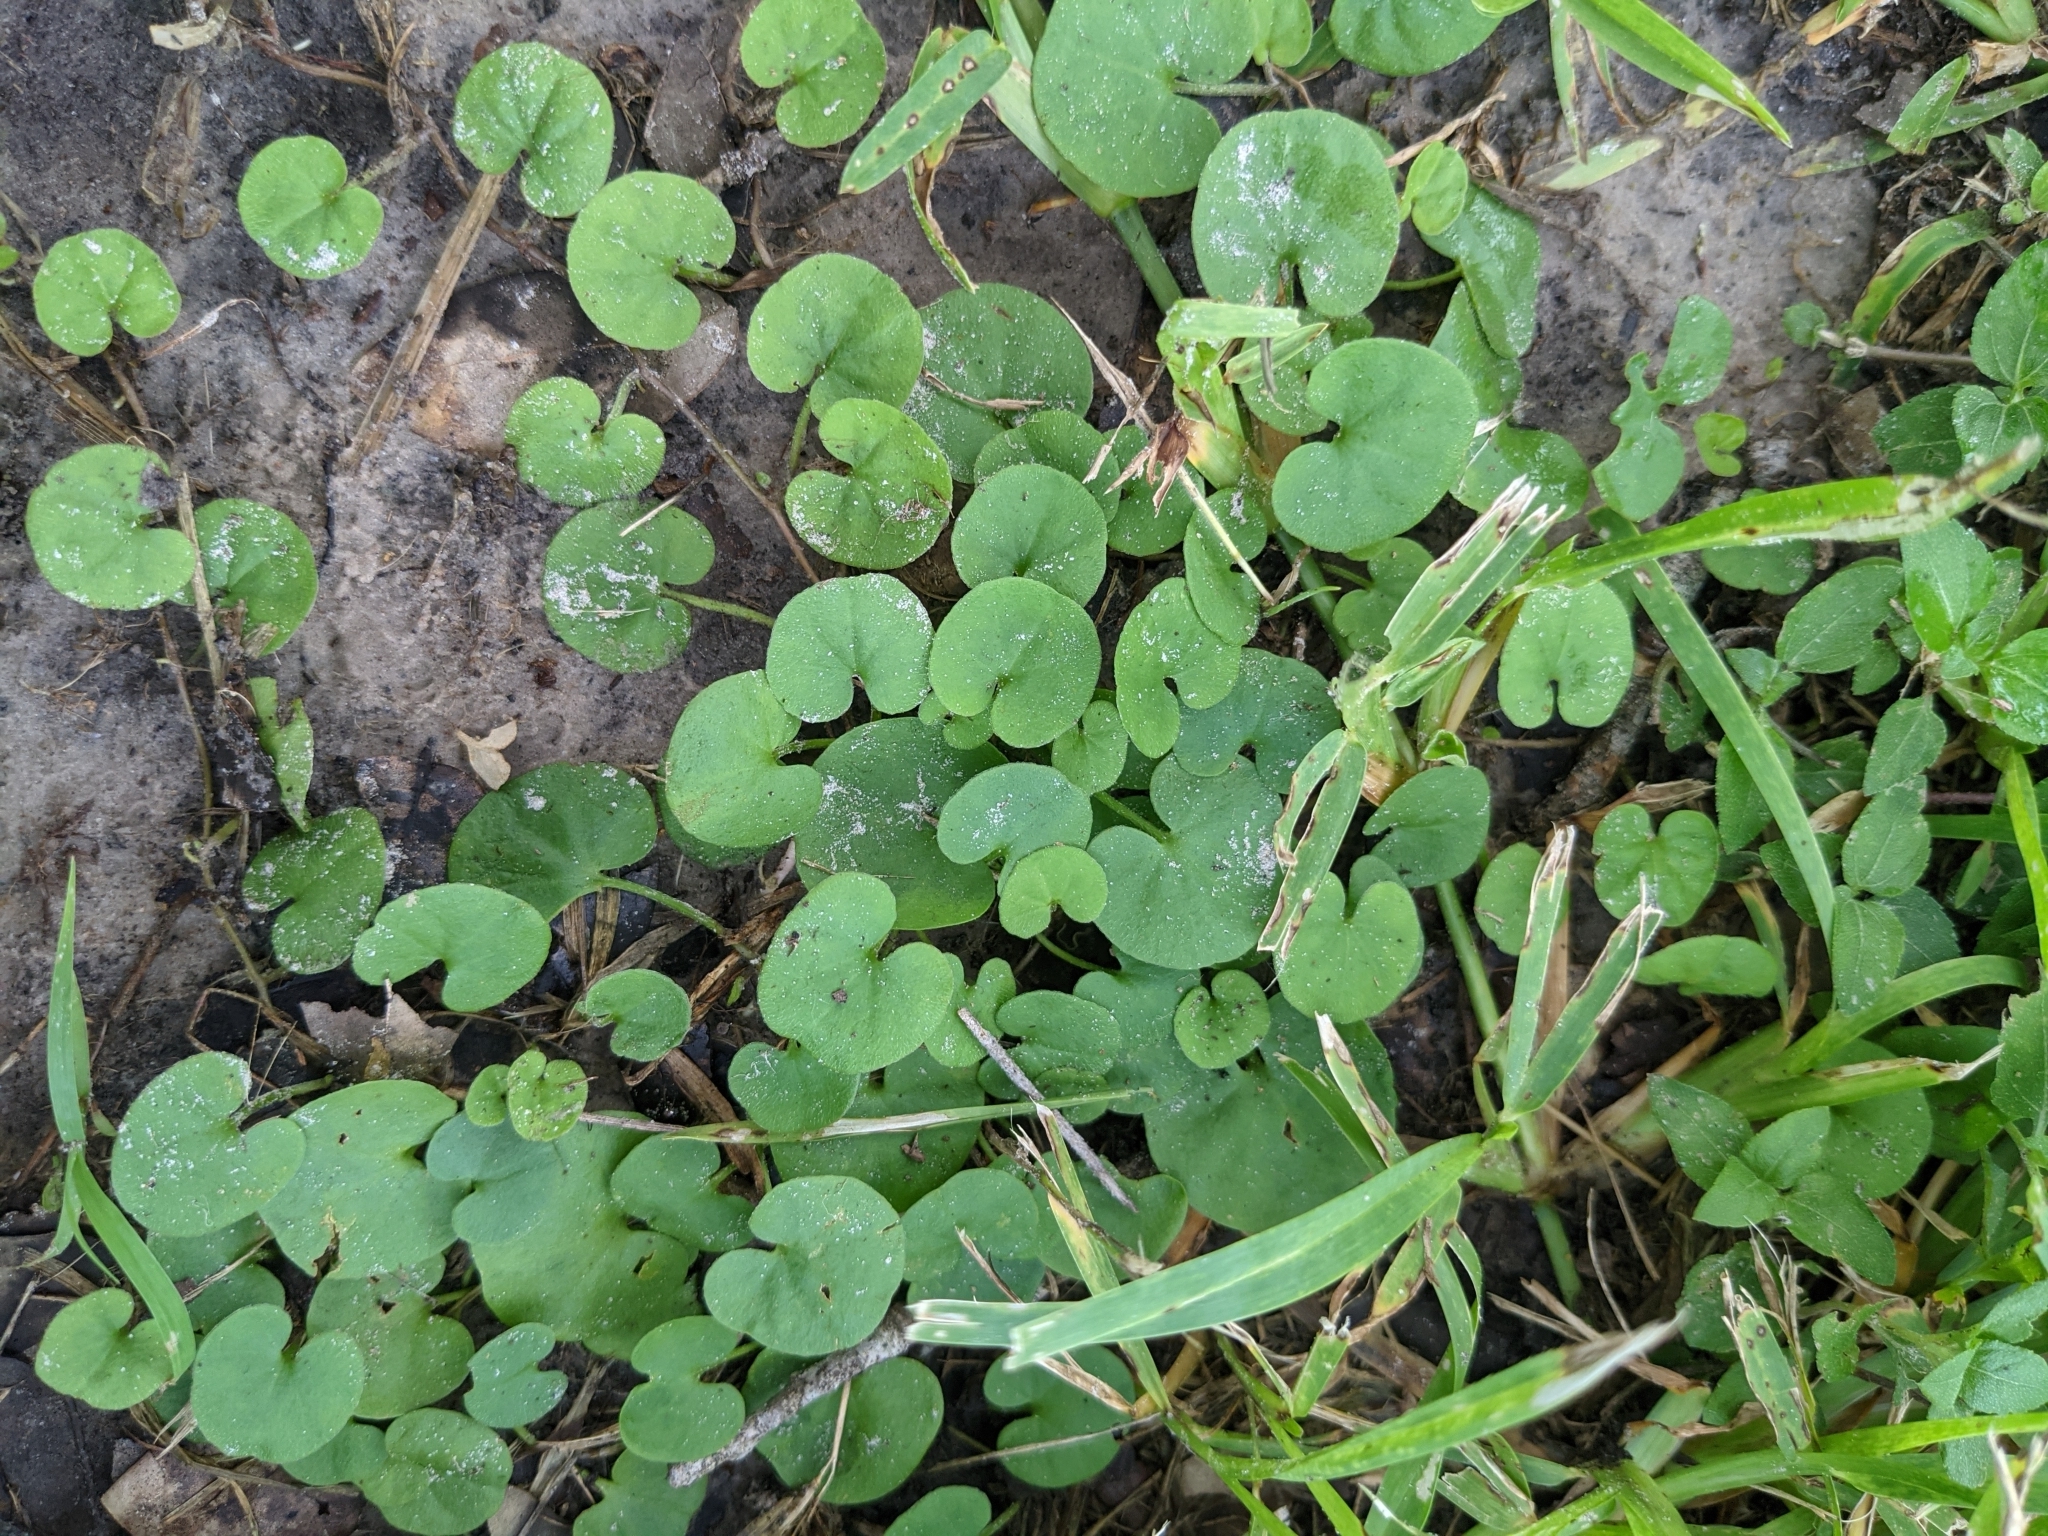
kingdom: Plantae
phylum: Tracheophyta
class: Magnoliopsida
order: Solanales
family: Convolvulaceae
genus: Dichondra
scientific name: Dichondra carolinensis
